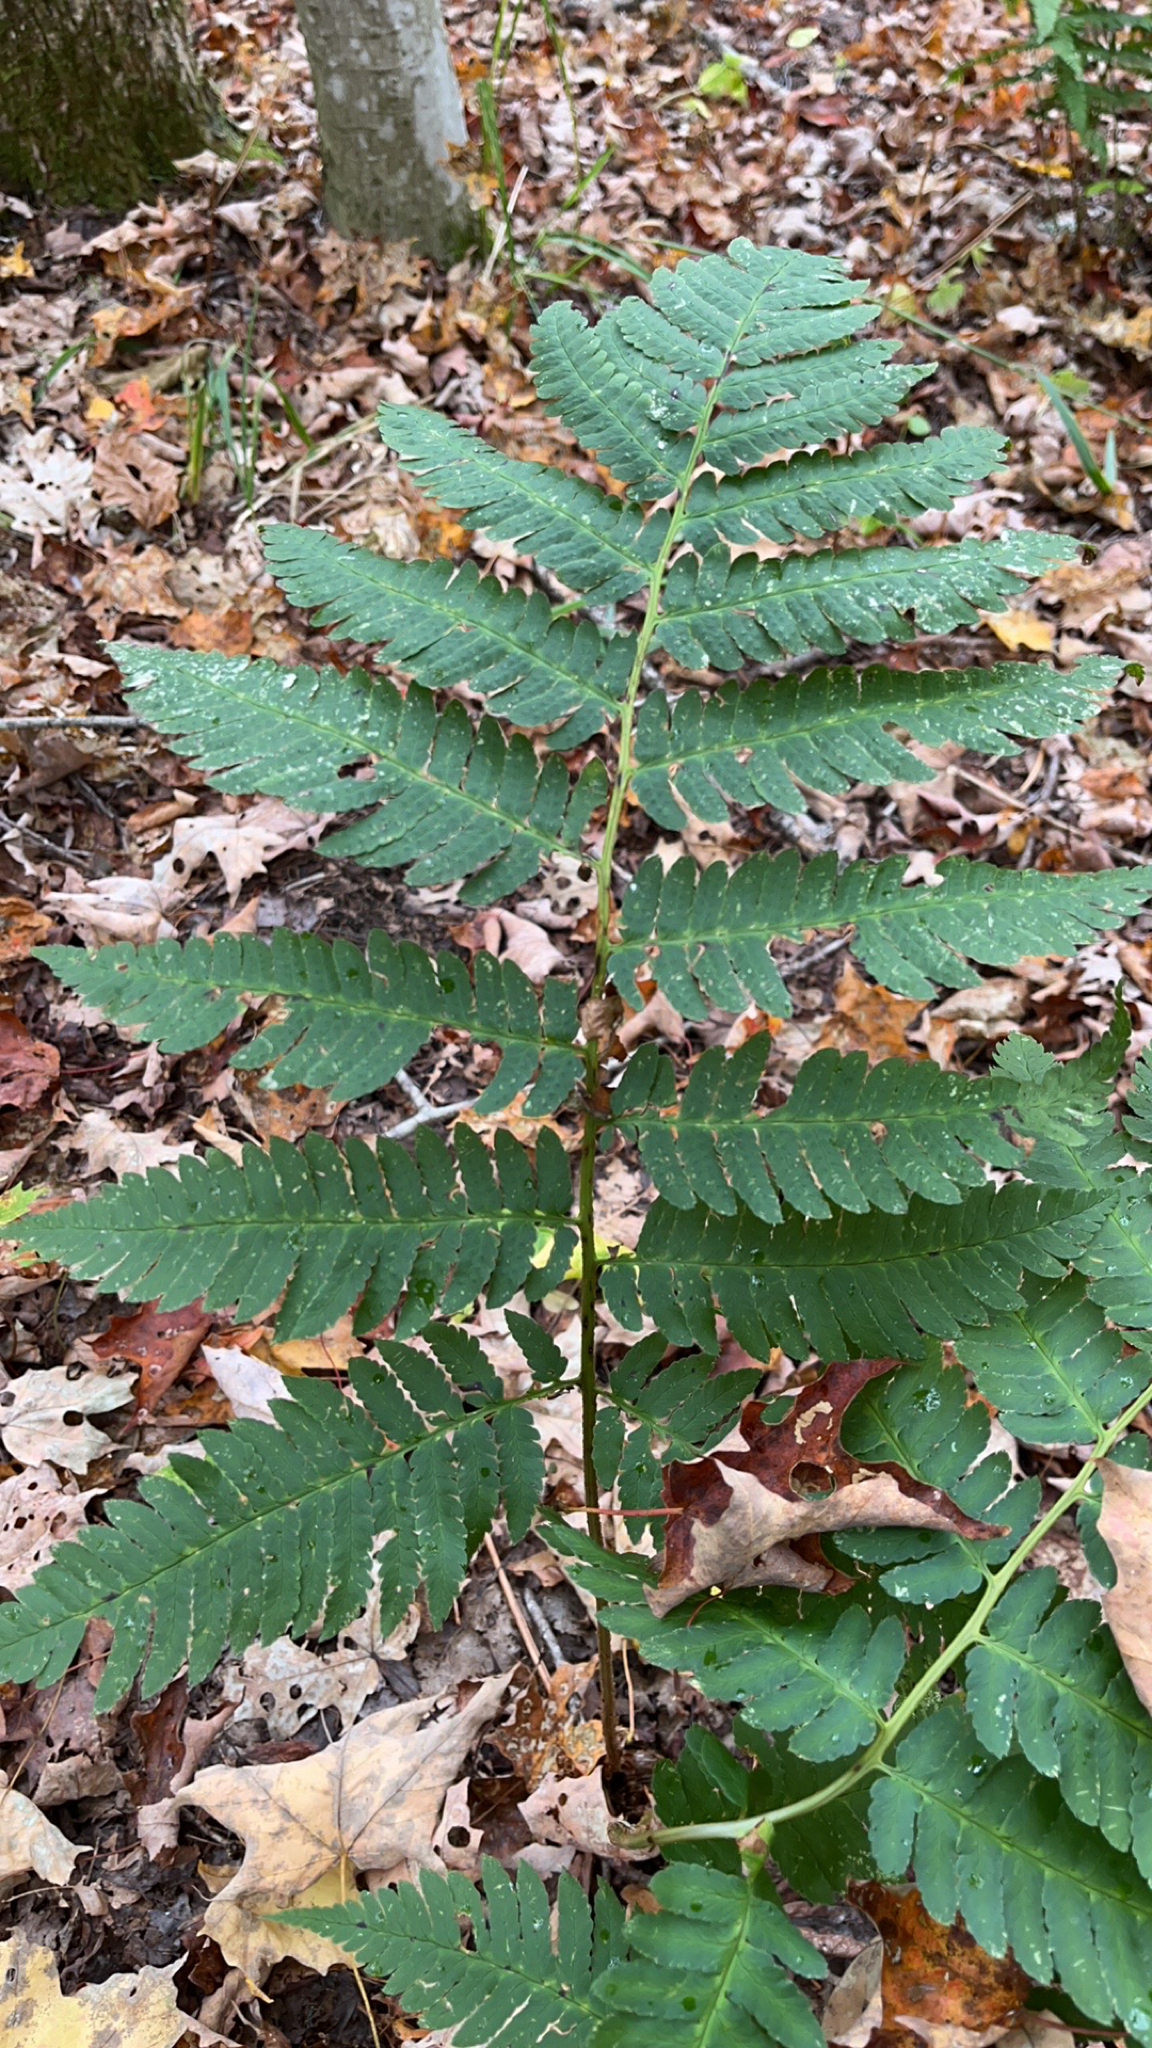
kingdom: Plantae
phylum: Tracheophyta
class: Polypodiopsida
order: Polypodiales
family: Dryopteridaceae
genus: Dryopteris
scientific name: Dryopteris goldieana
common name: Goldie's fern
